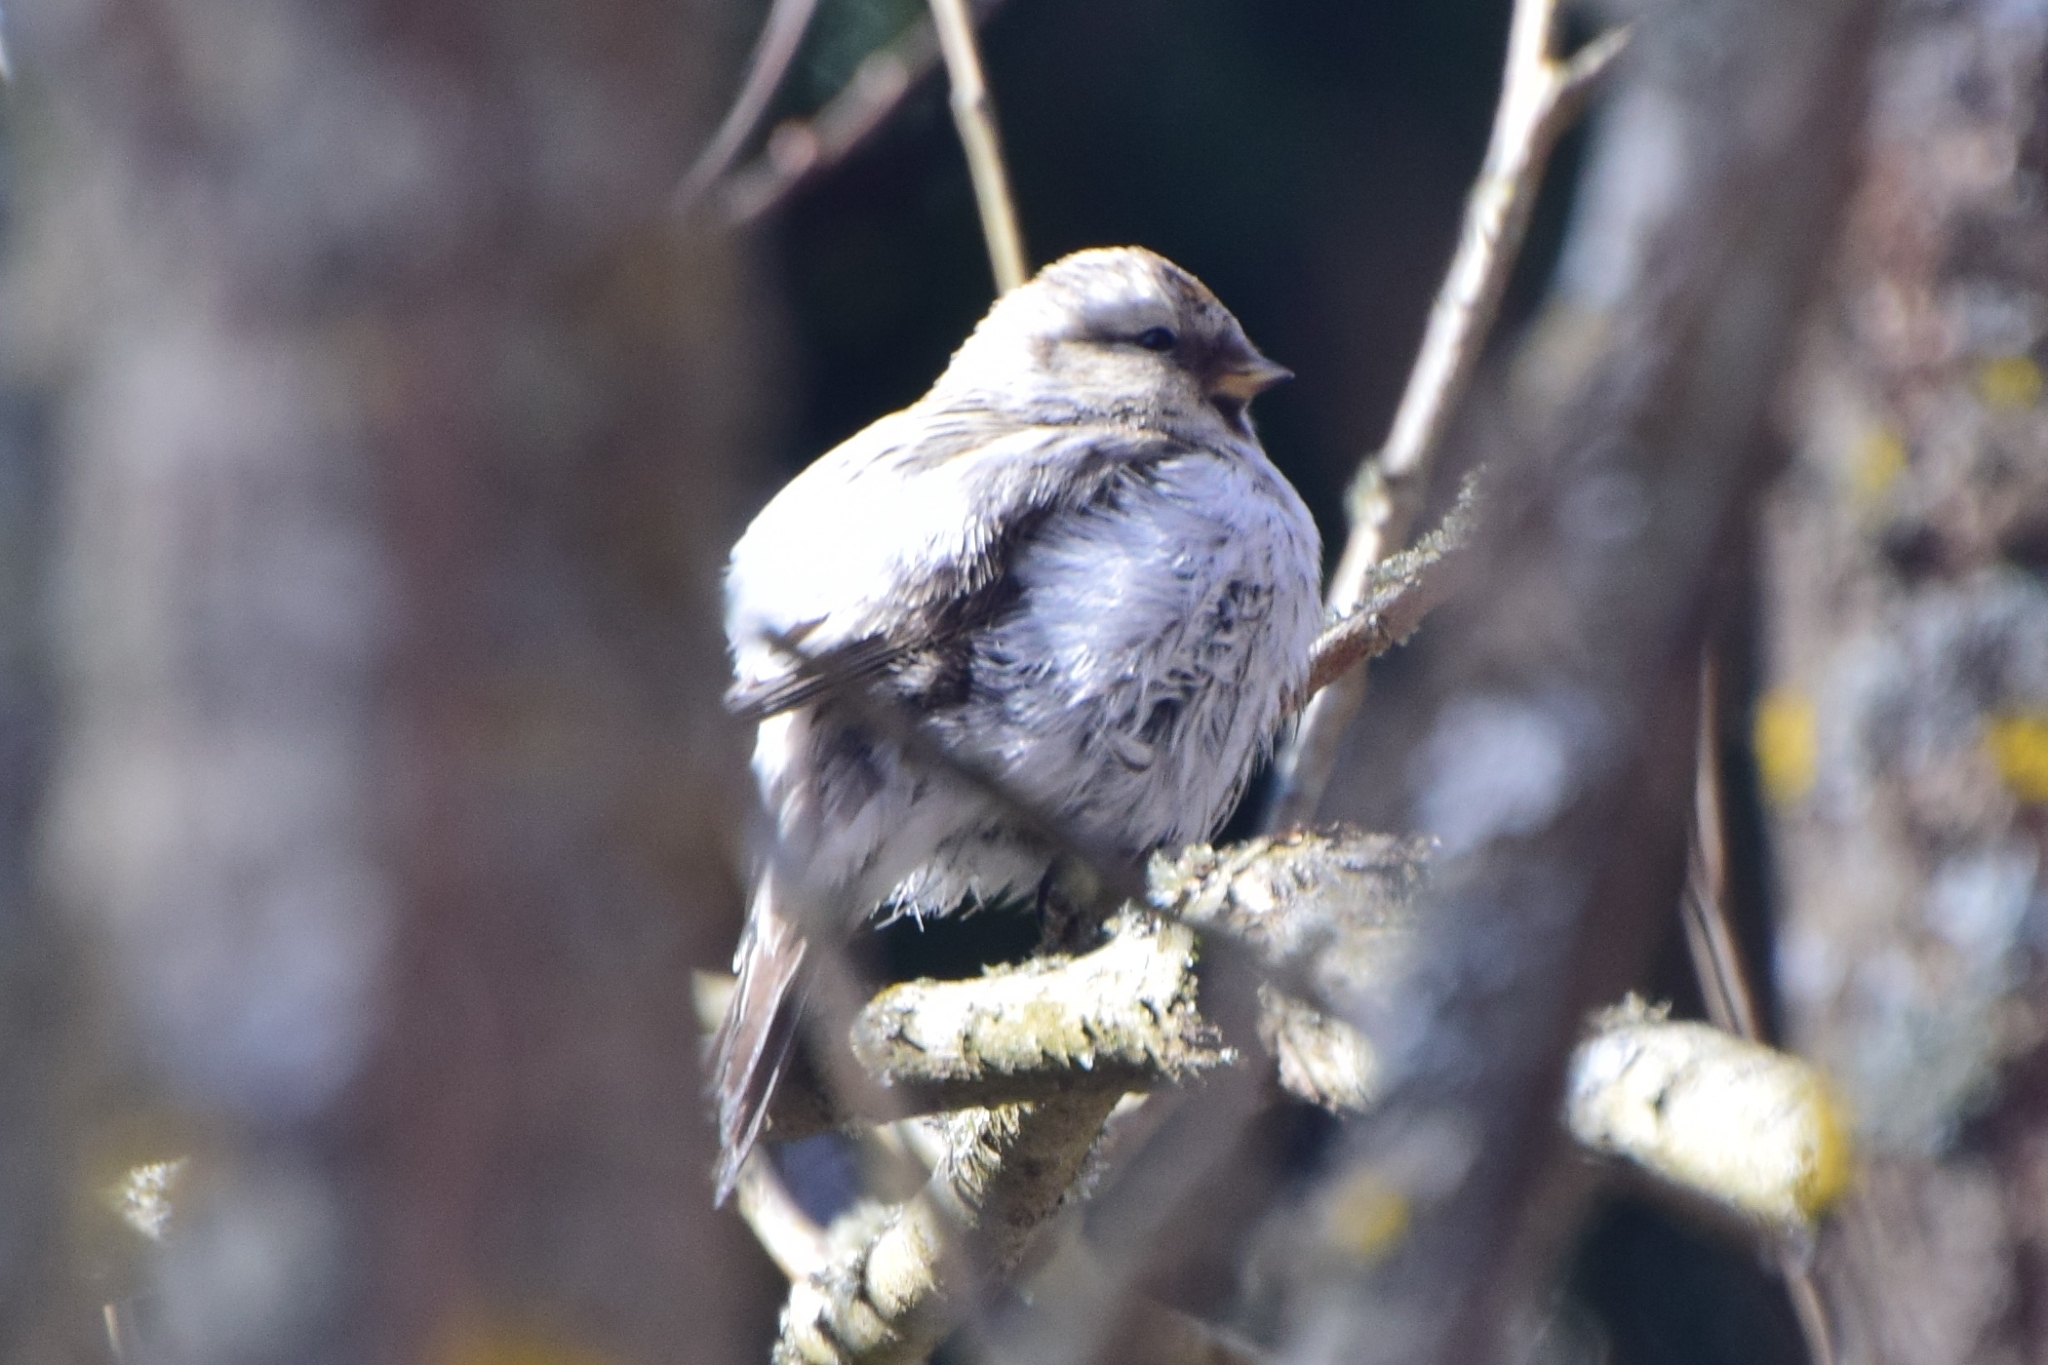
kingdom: Animalia
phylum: Chordata
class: Aves
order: Passeriformes
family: Fringillidae
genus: Acanthis
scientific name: Acanthis hornemanni
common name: Arctic redpoll
